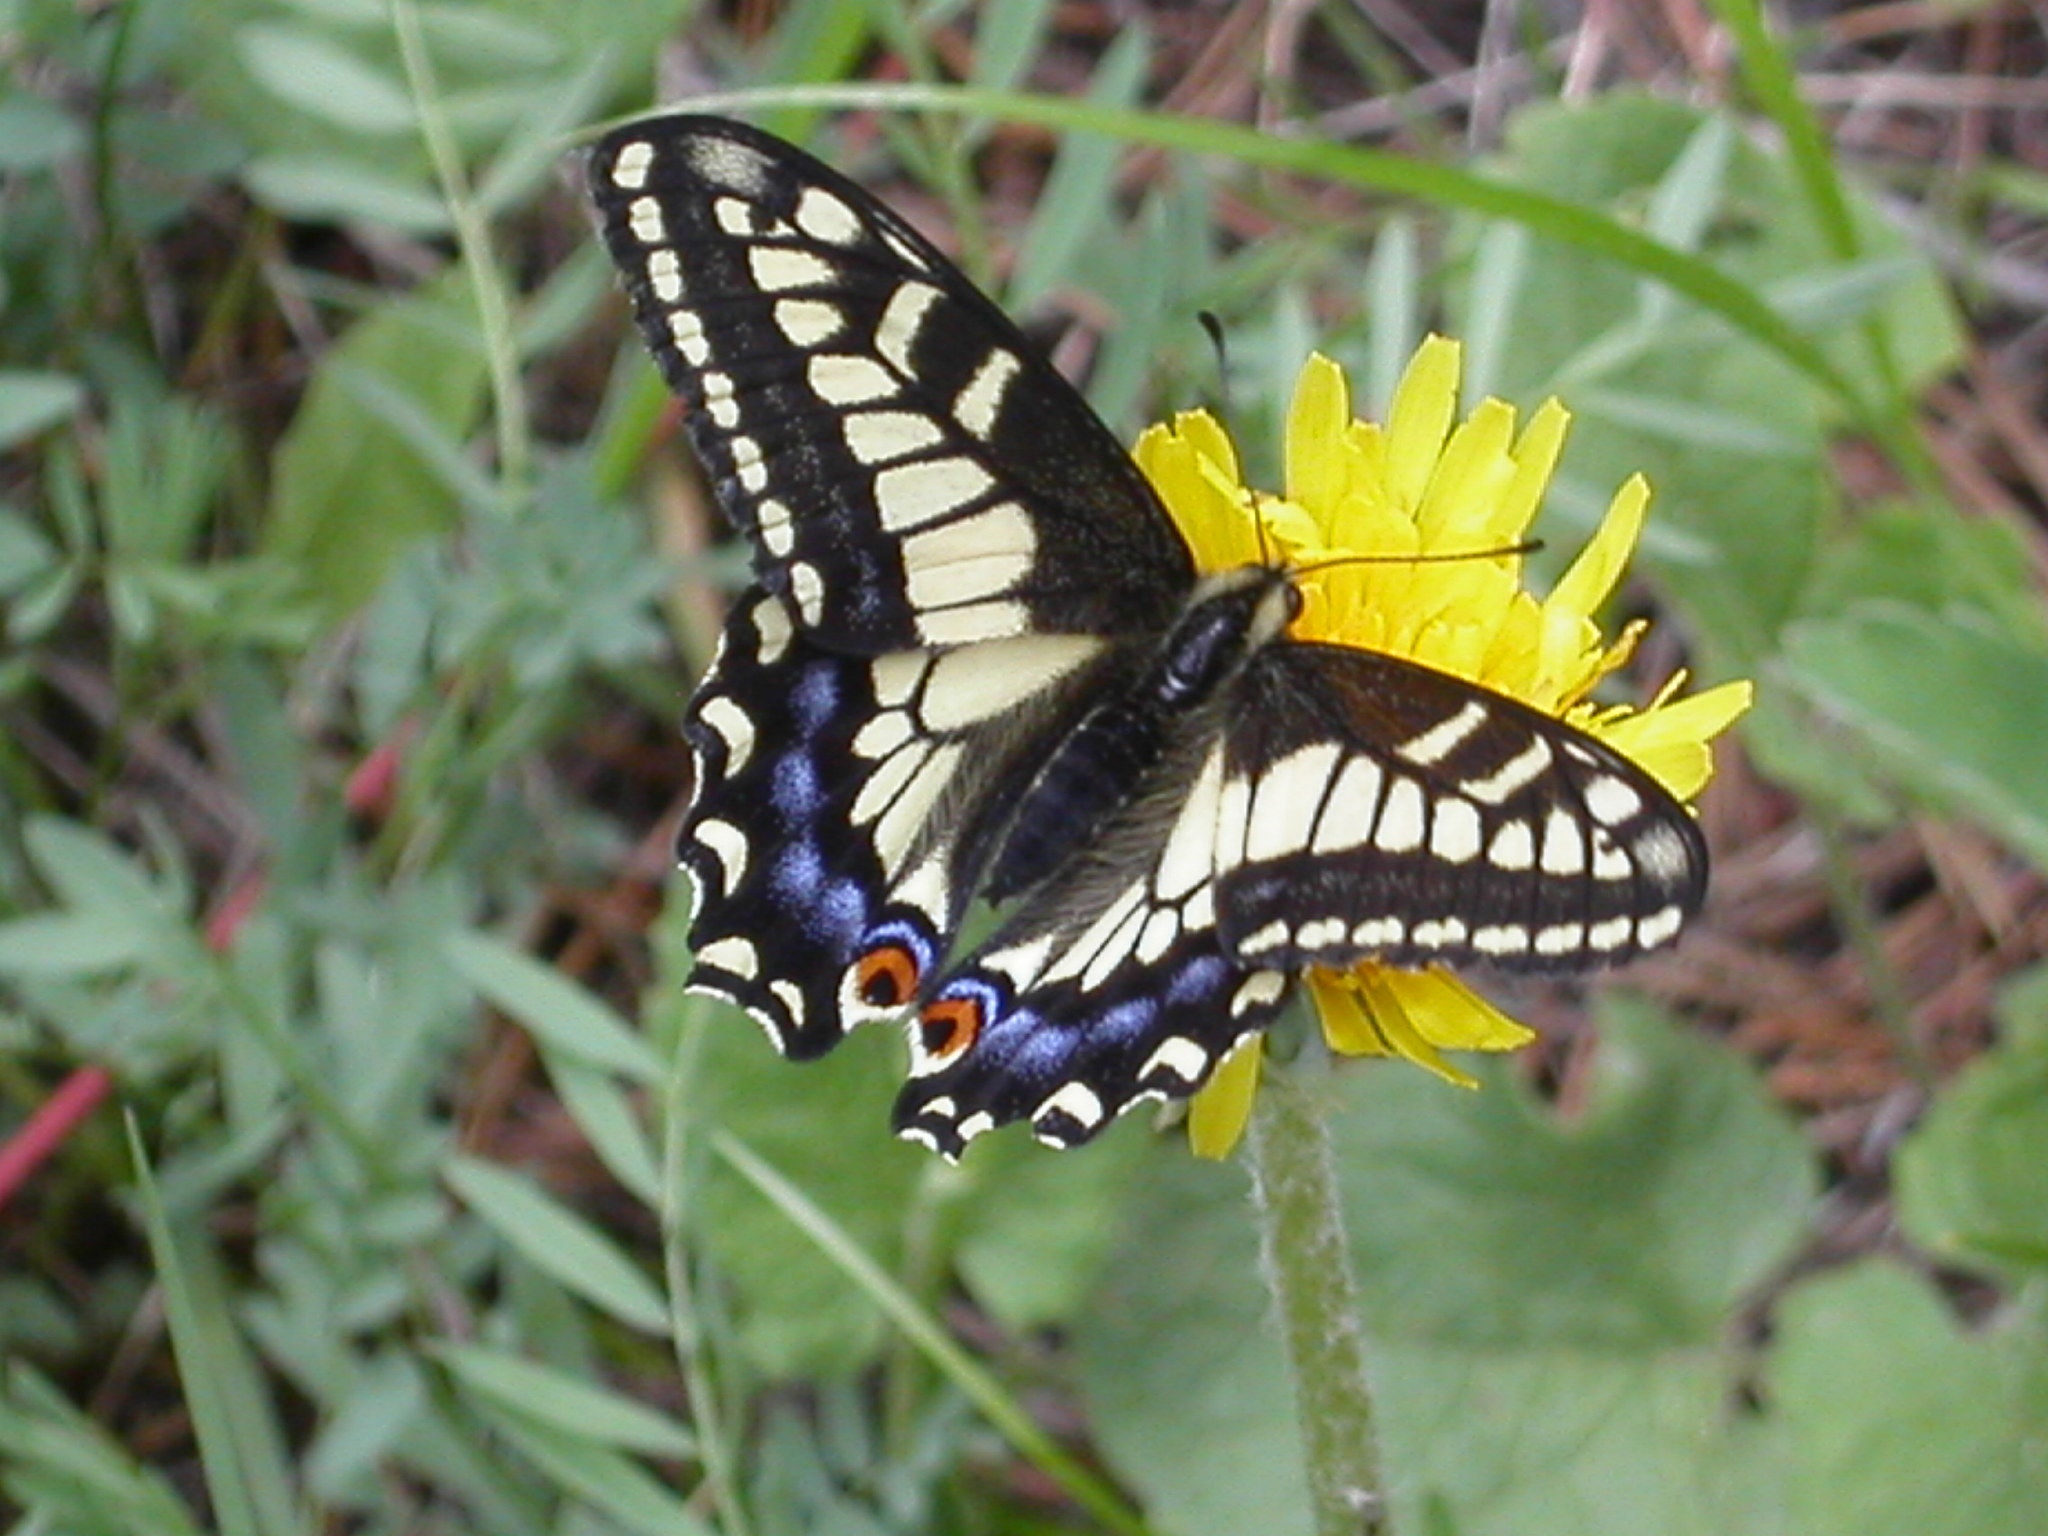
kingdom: Animalia
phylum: Arthropoda
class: Insecta
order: Lepidoptera
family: Papilionidae
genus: Papilio
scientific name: Papilio zelicaon
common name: Anise swallowtail
